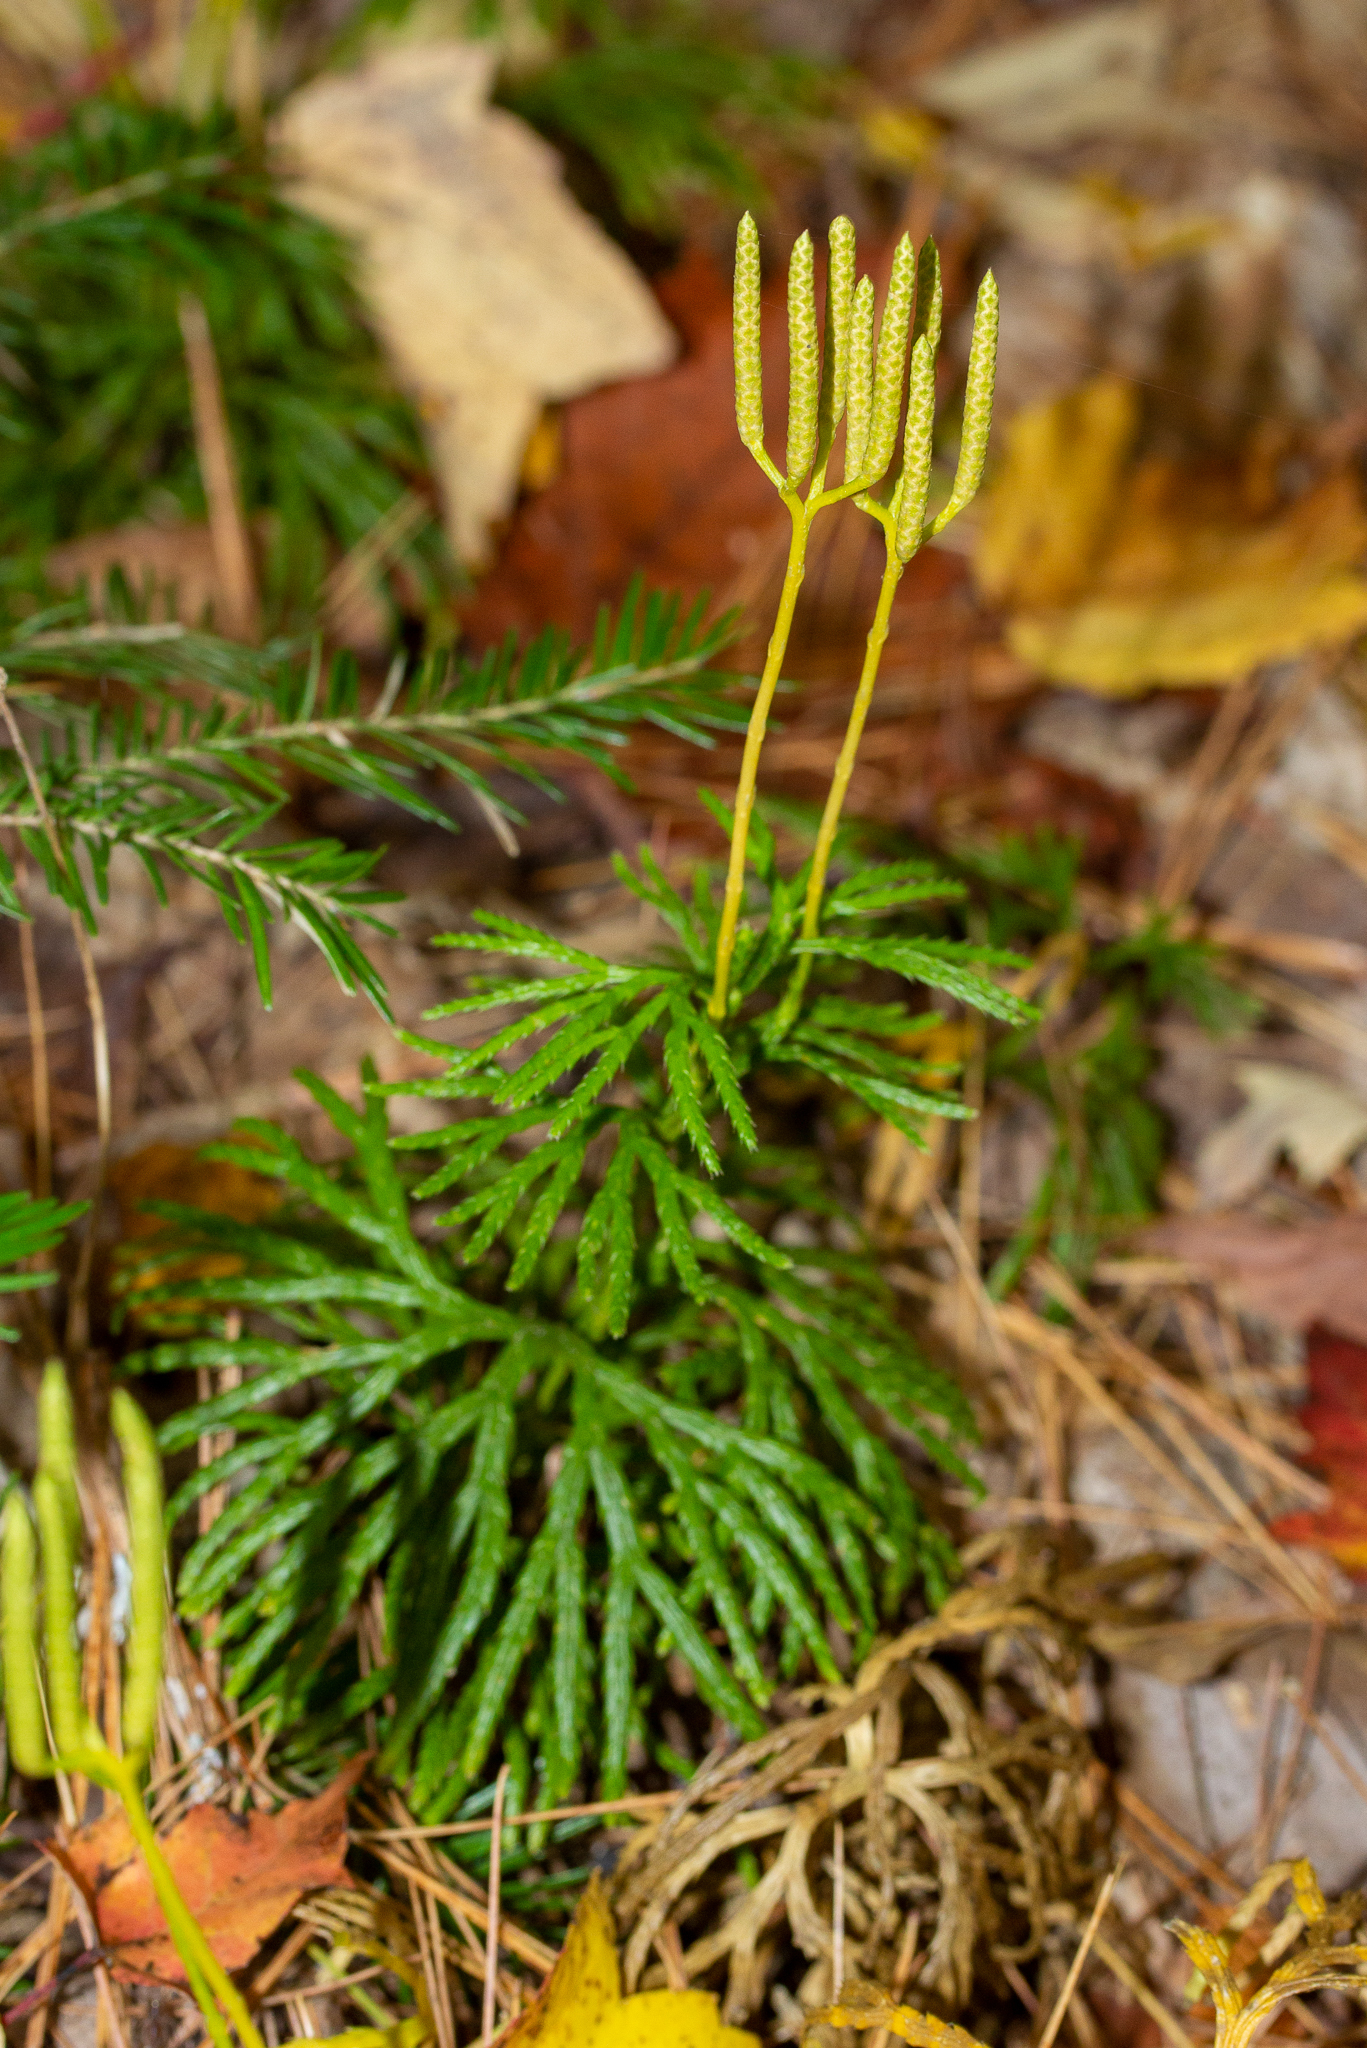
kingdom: Plantae
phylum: Tracheophyta
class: Lycopodiopsida
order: Lycopodiales
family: Lycopodiaceae
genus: Diphasiastrum
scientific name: Diphasiastrum digitatum
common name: Southern running-pine
